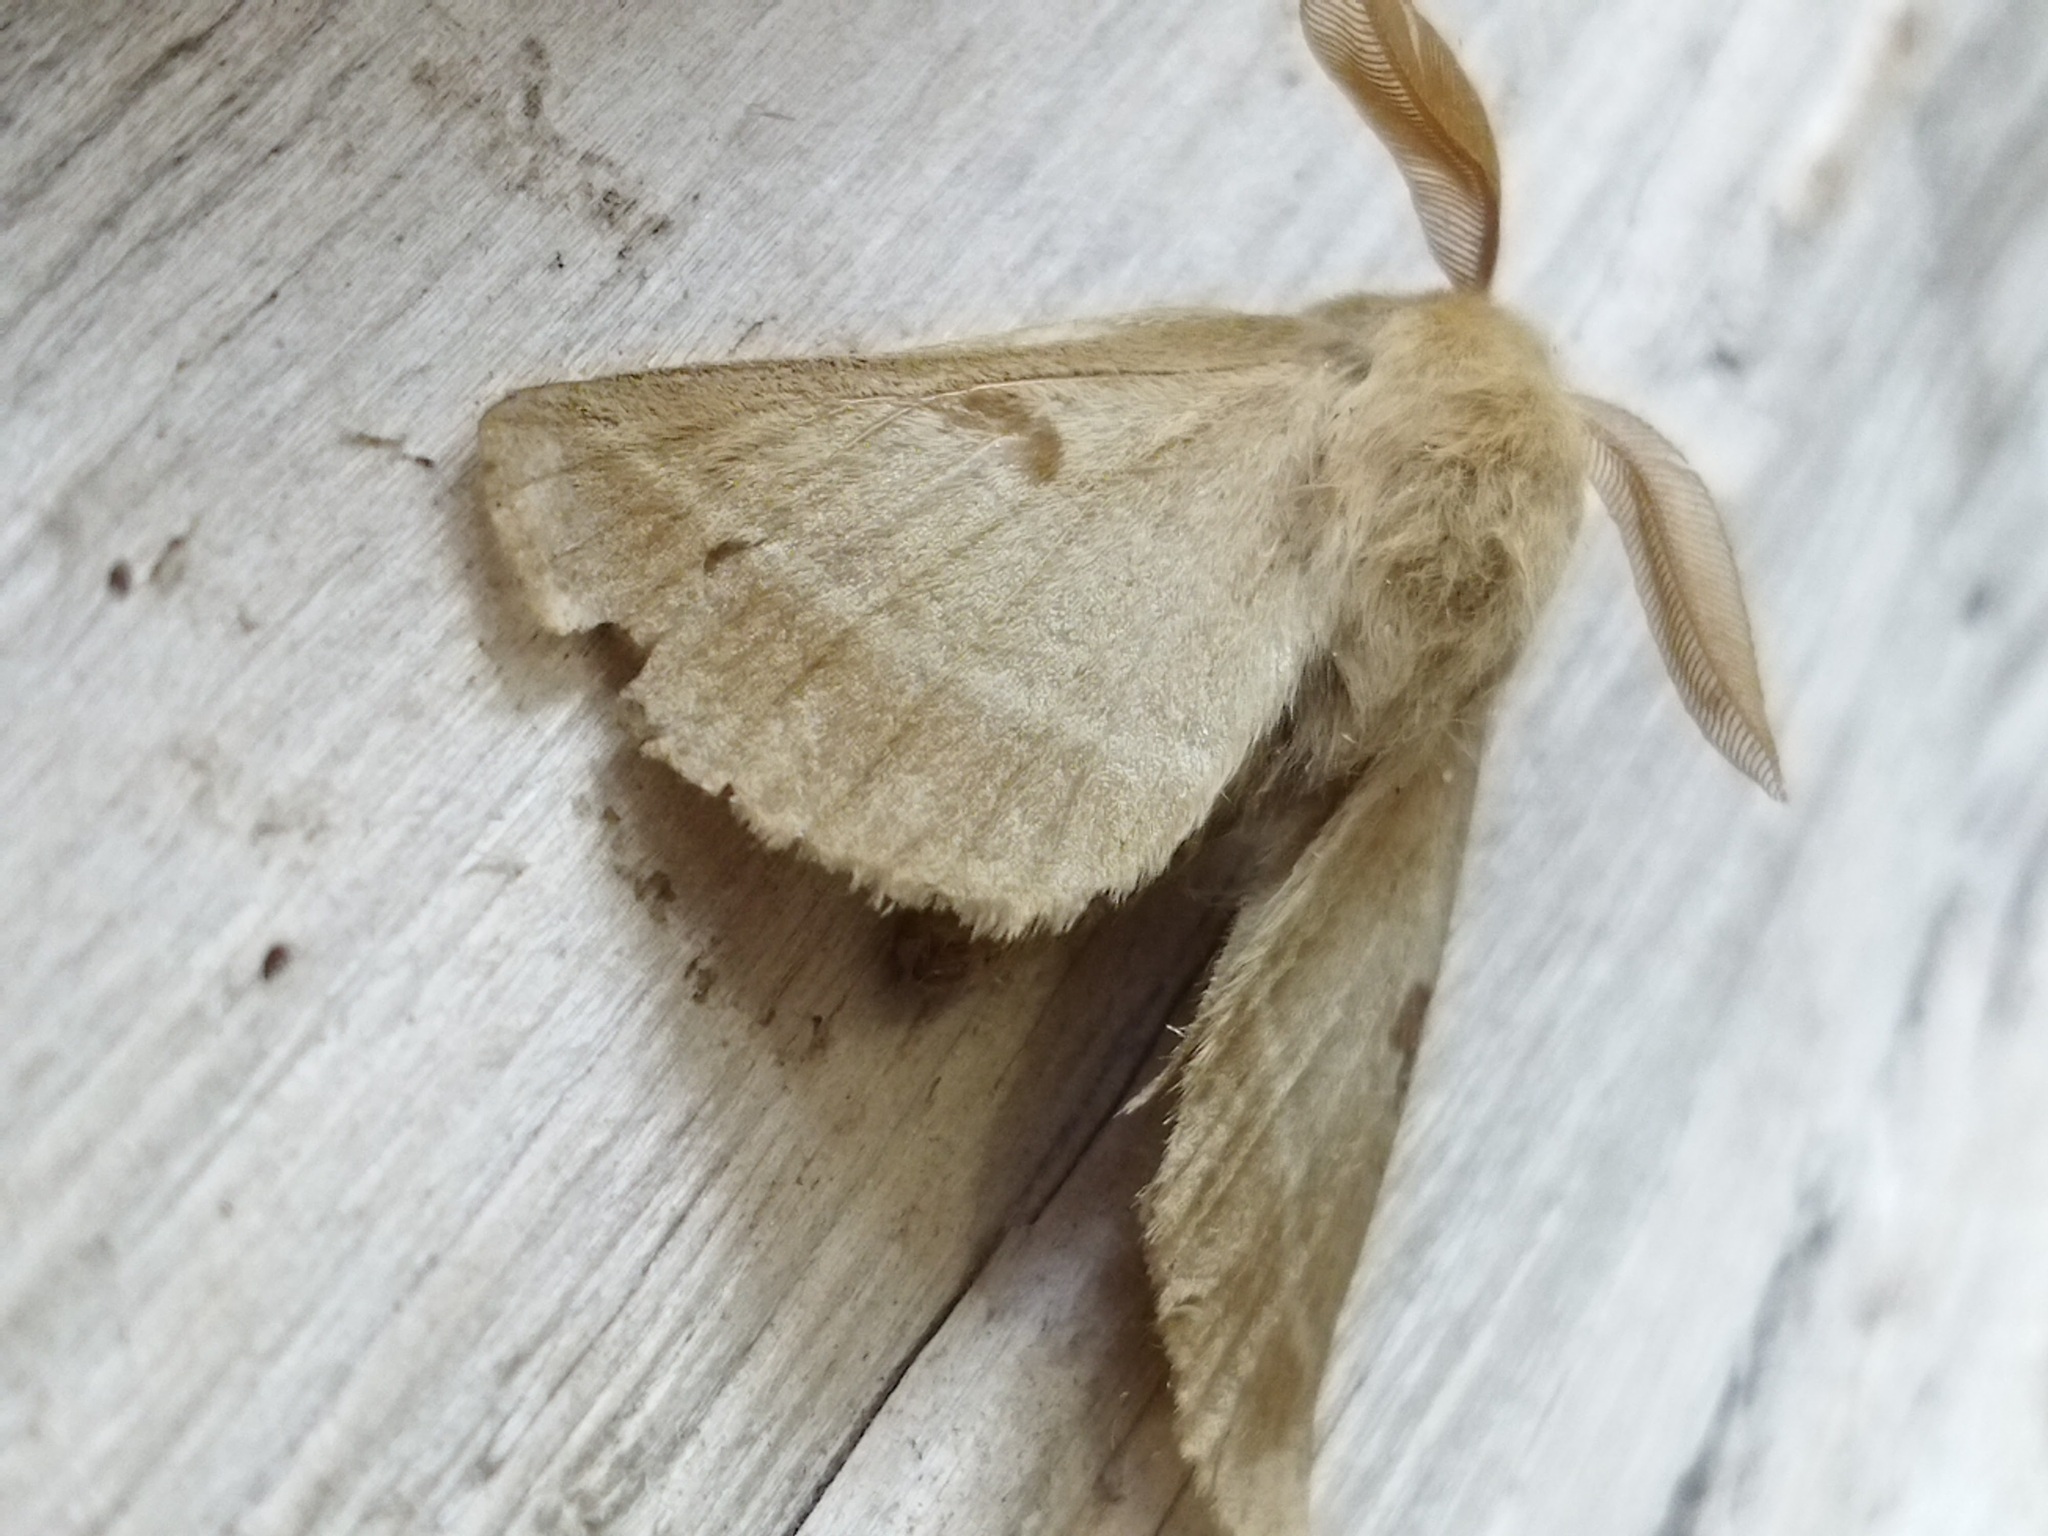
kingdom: Animalia
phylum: Arthropoda
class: Insecta
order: Lepidoptera
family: Brahmaeidae
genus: Lemonia
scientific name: Lemonia balcanica
